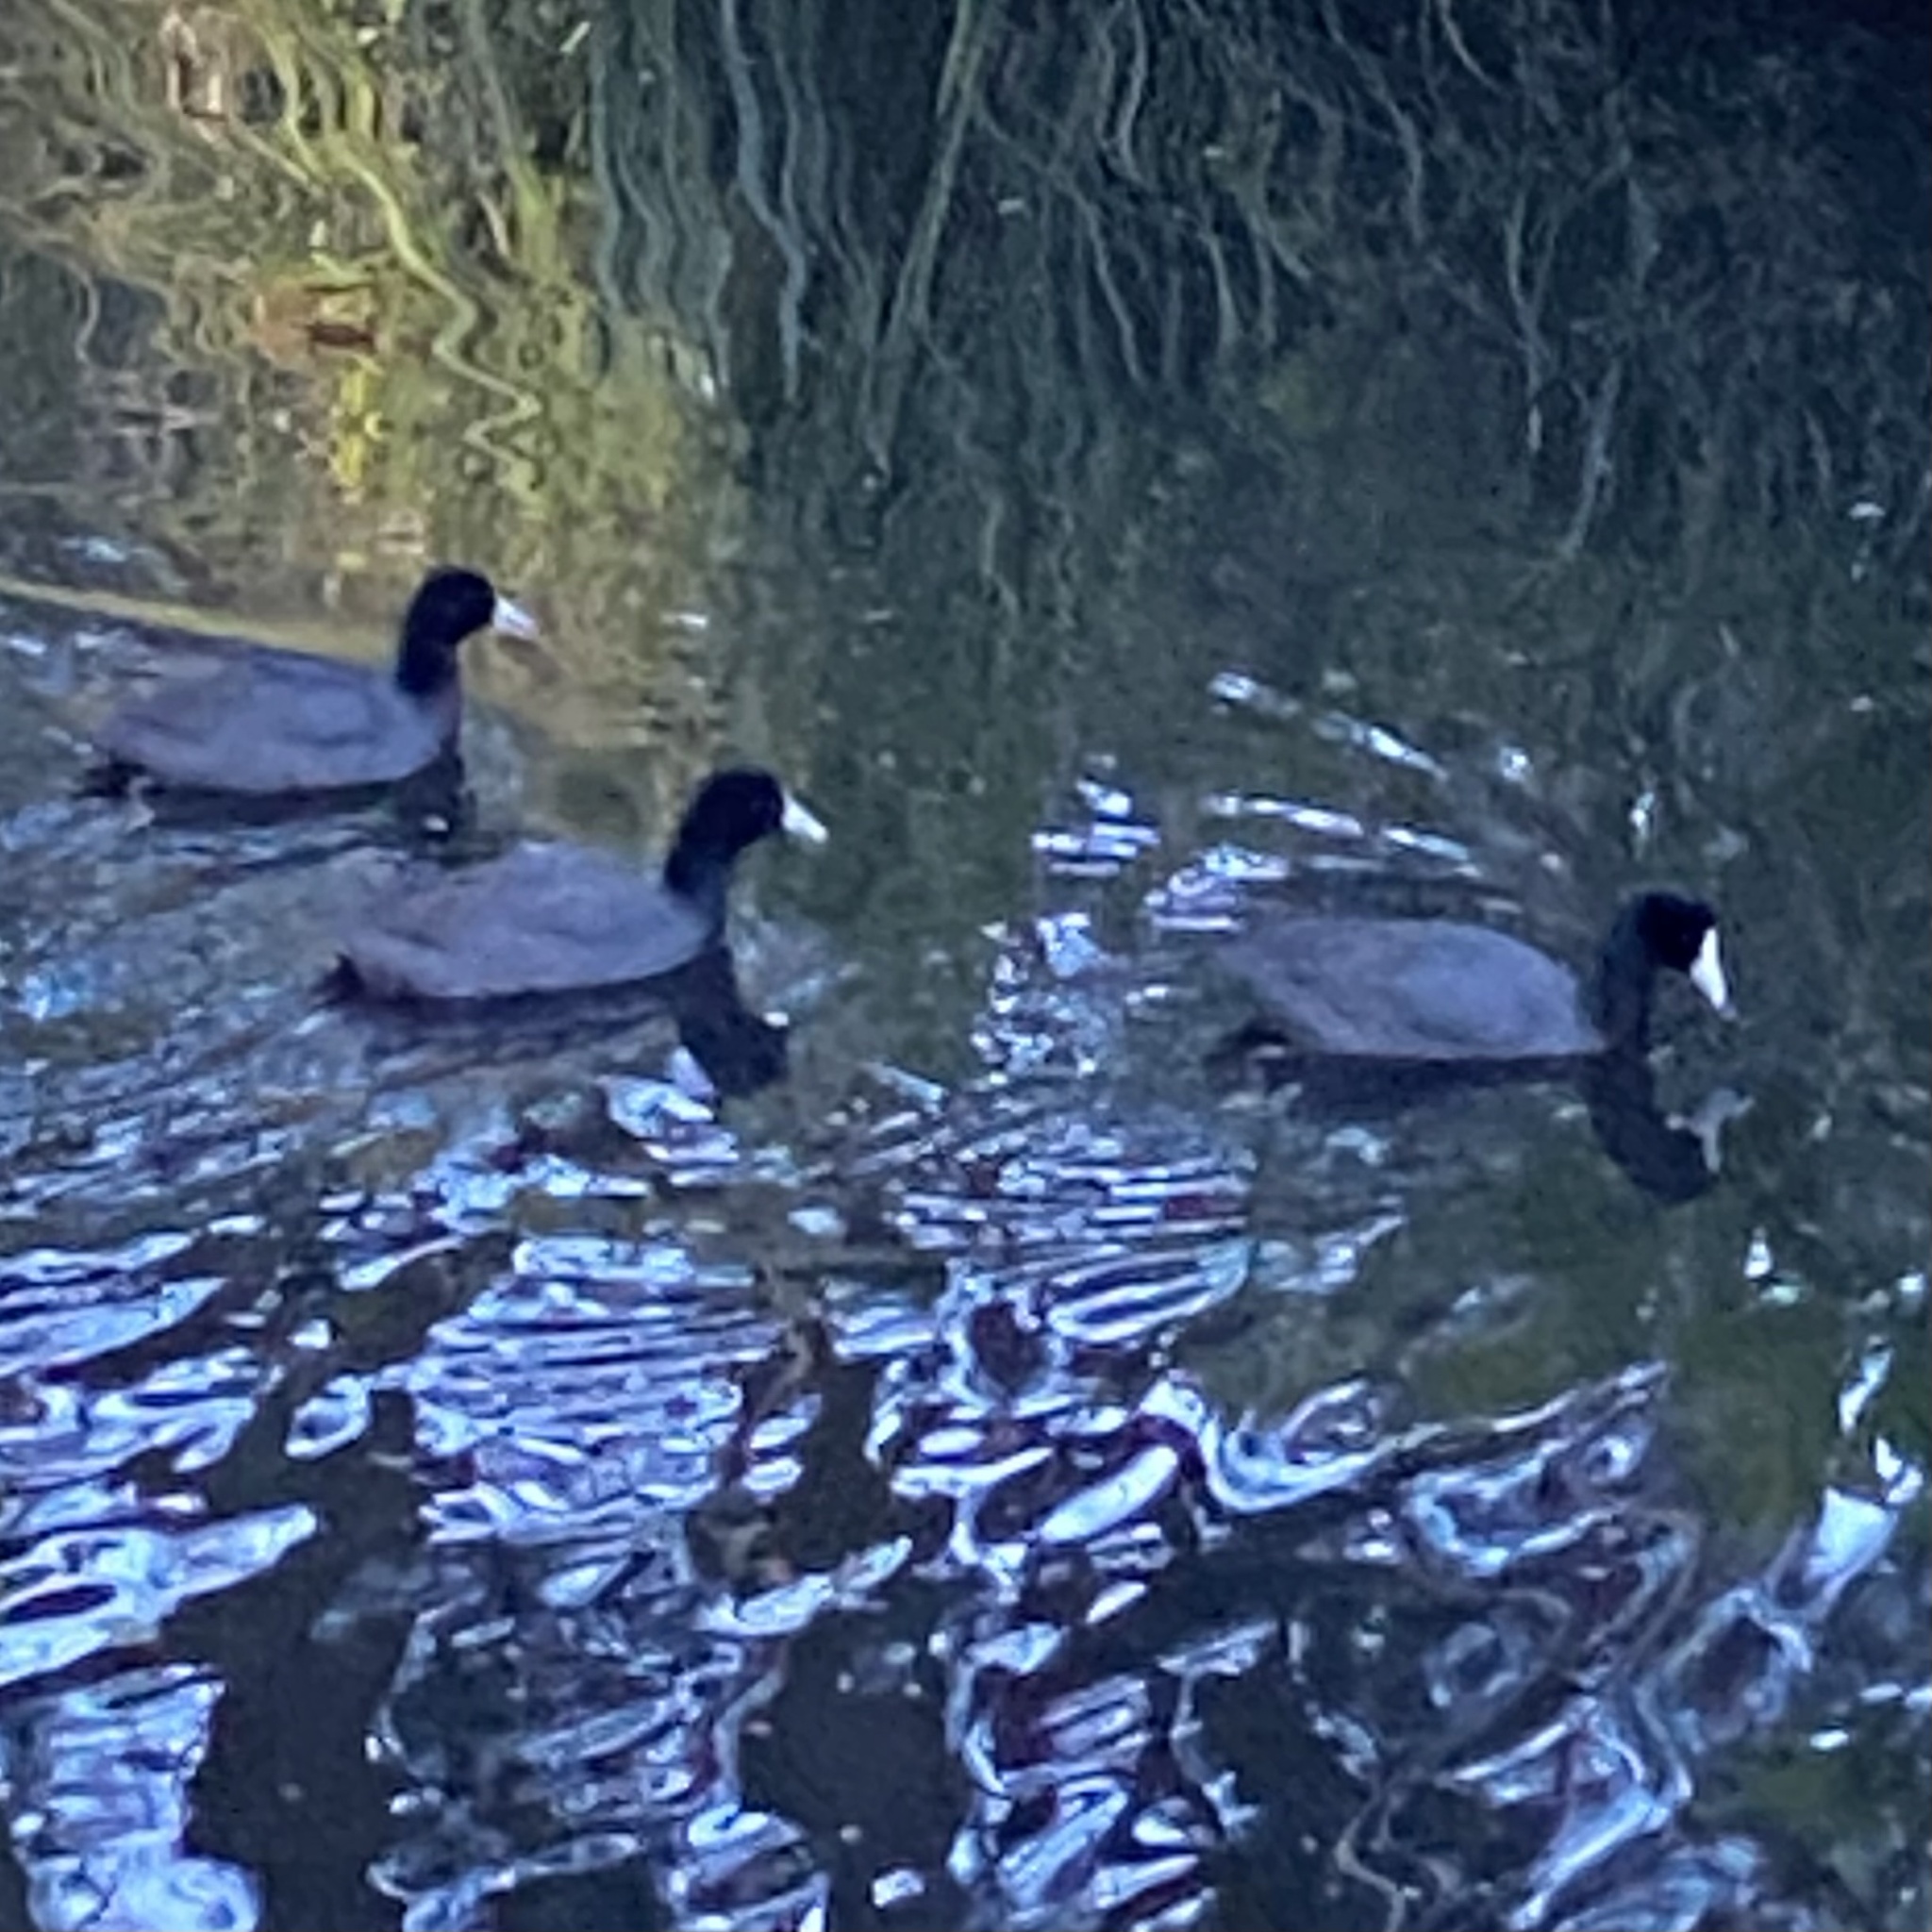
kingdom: Animalia
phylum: Chordata
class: Aves
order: Gruiformes
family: Rallidae
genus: Fulica
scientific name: Fulica atra
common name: Eurasian coot
